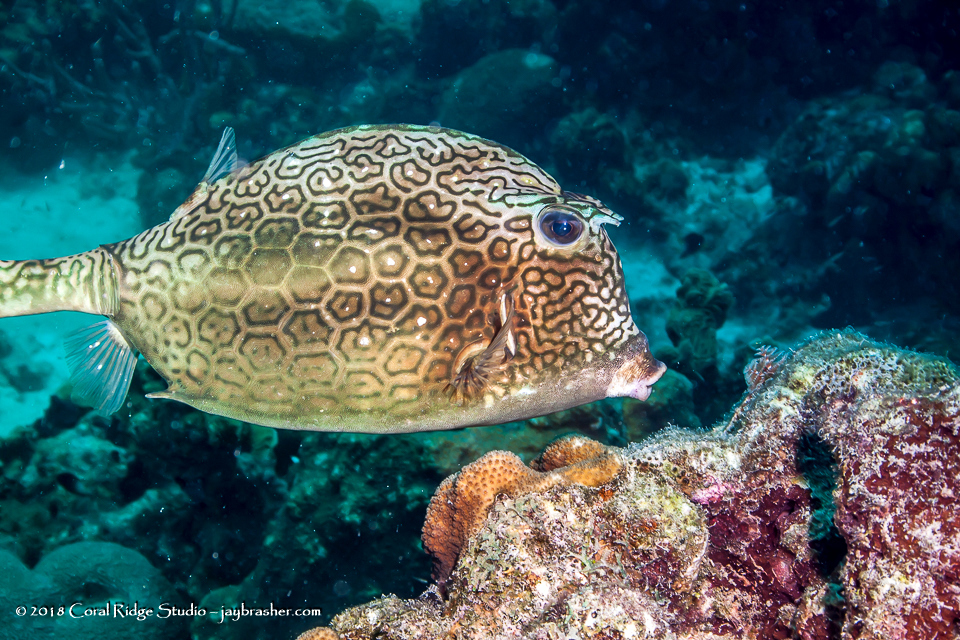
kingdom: Animalia
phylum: Chordata
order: Tetraodontiformes
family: Ostraciidae
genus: Acanthostracion
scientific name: Acanthostracion polygonius
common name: Honeycomb cowfish
